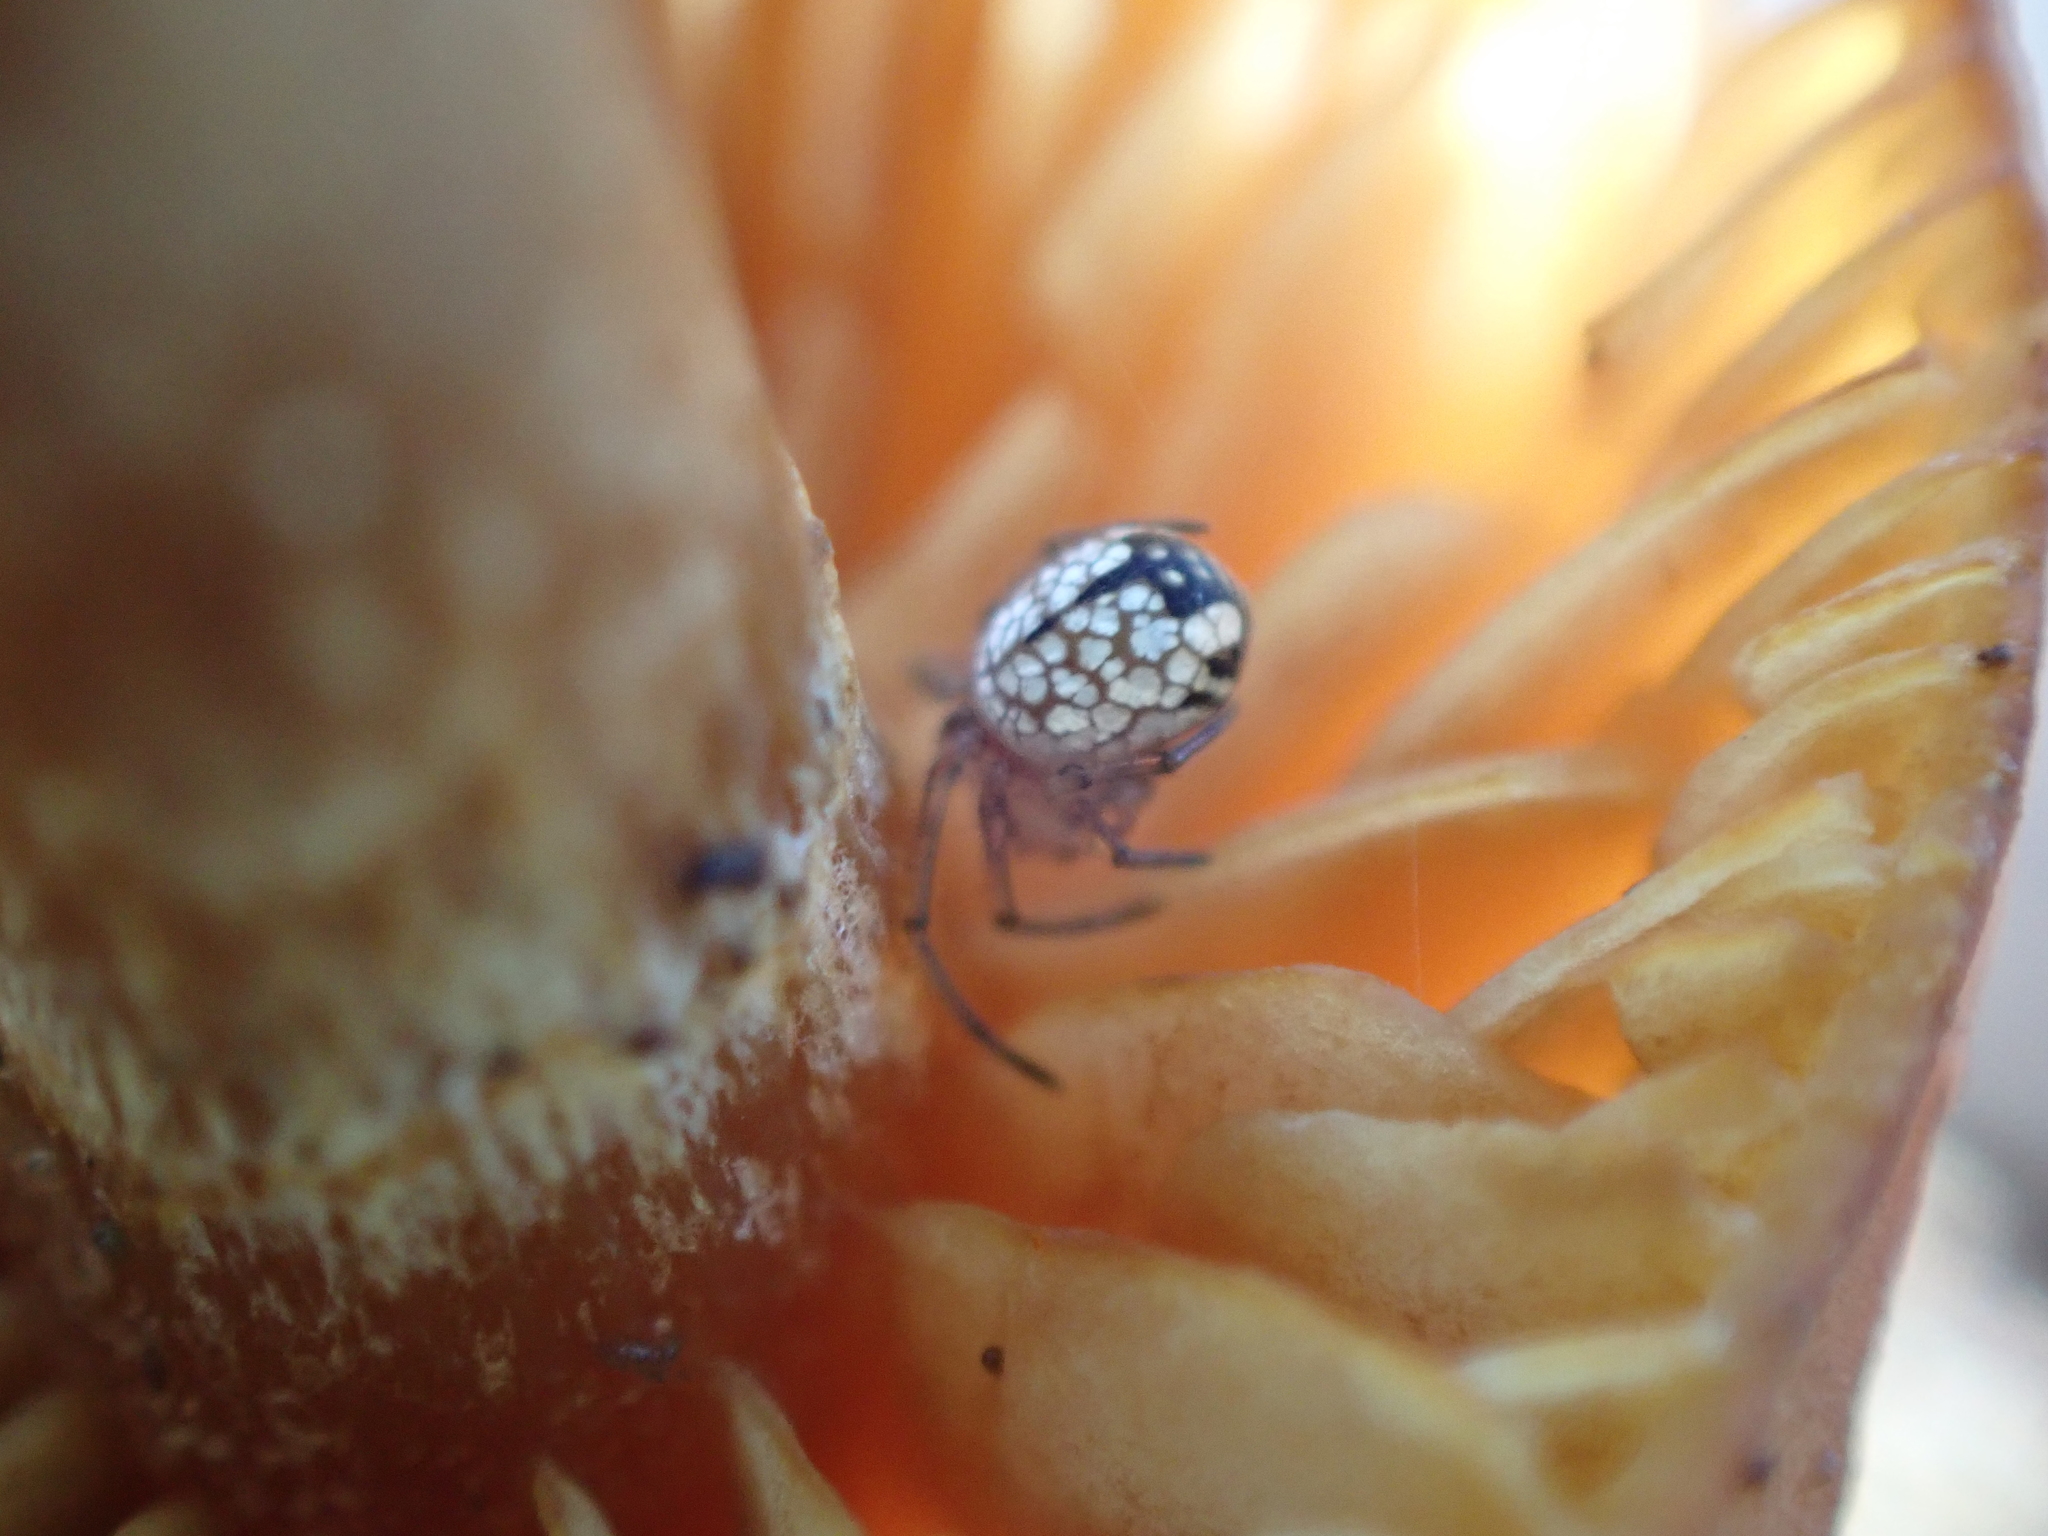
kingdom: Animalia
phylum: Arthropoda
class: Arachnida
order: Araneae
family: Tetragnathidae
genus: Leucauge
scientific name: Leucauge venusta
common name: Longjawed orb weavers
